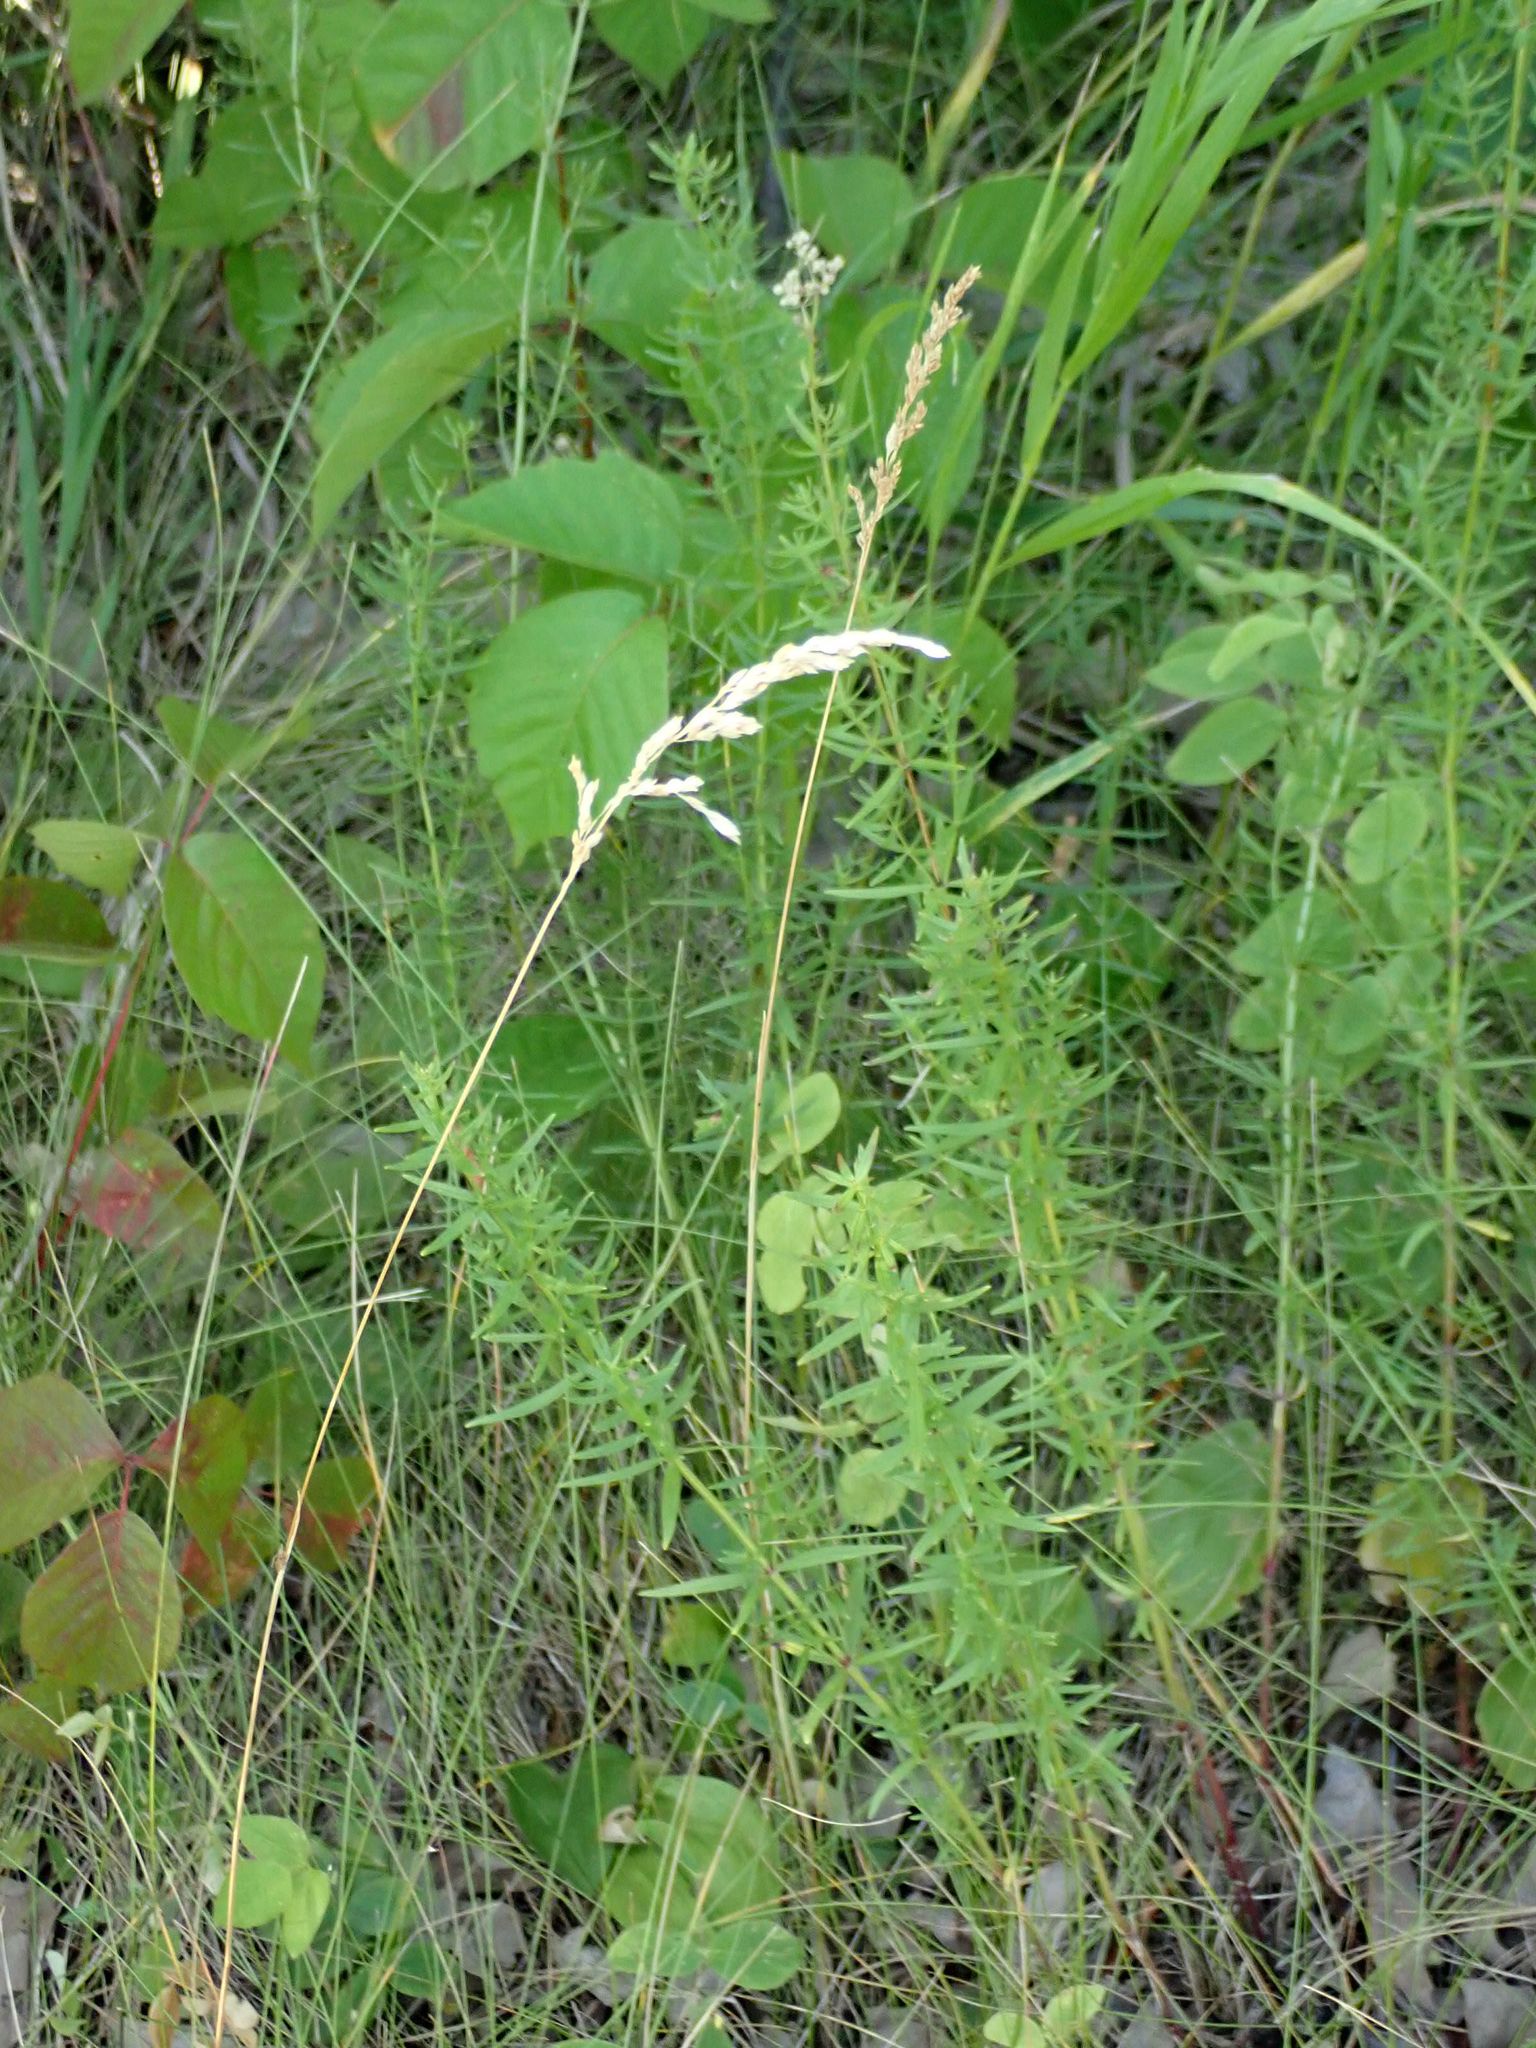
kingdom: Plantae
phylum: Tracheophyta
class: Magnoliopsida
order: Gentianales
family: Rubiaceae
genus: Galium
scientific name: Galium boreale
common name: Northern bedstraw
